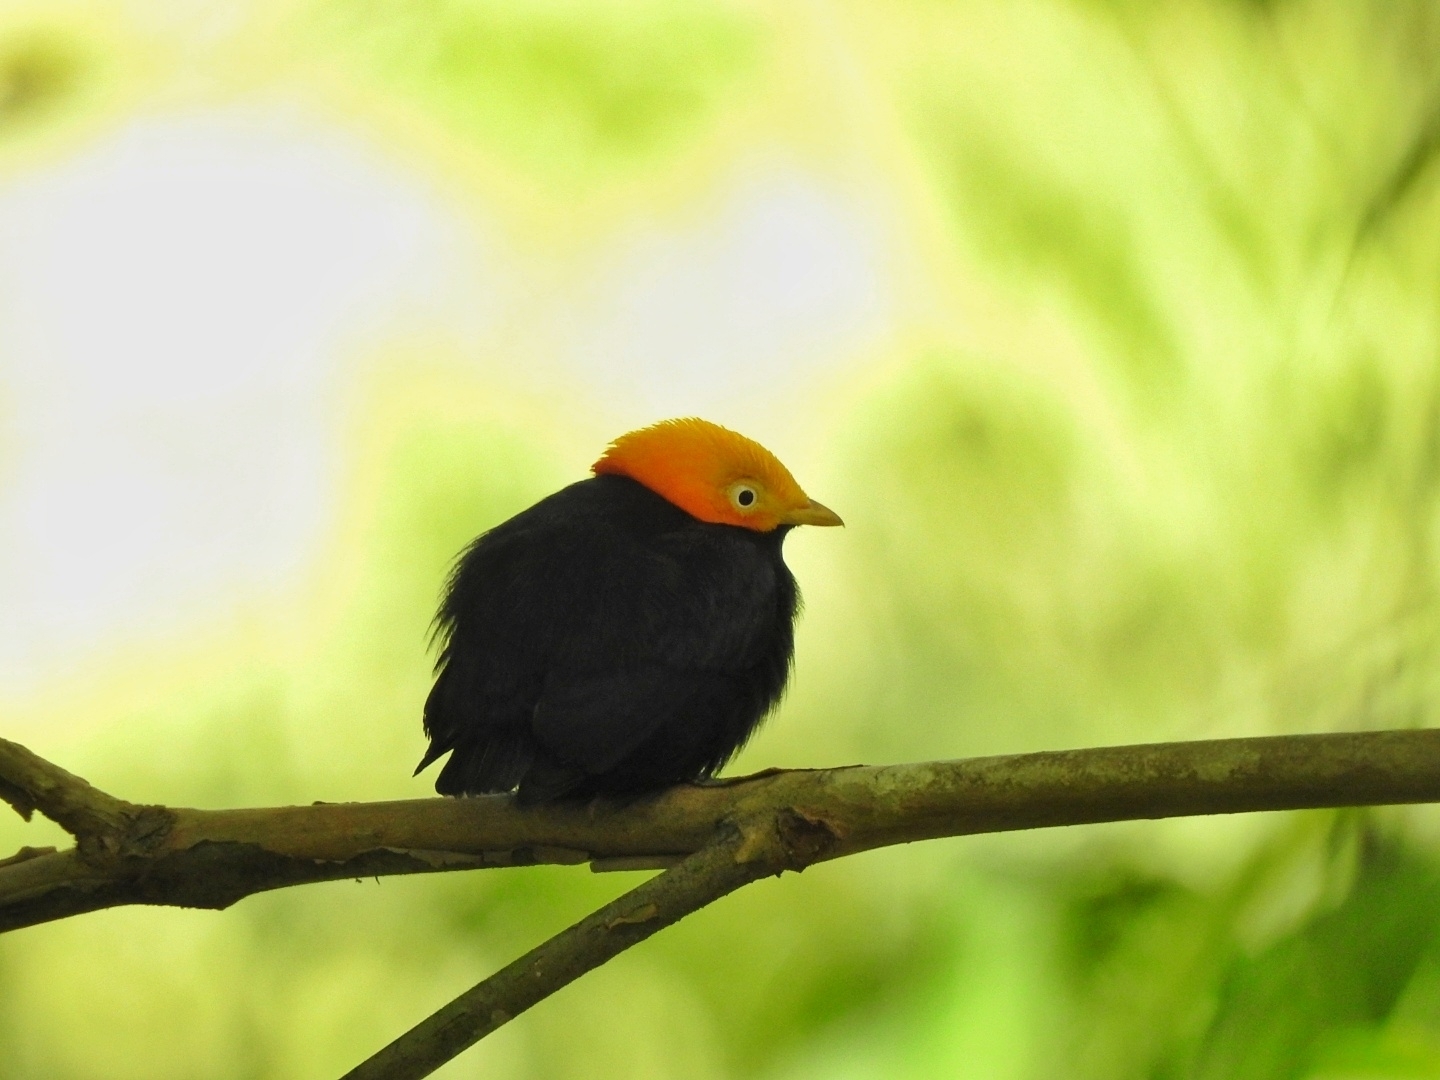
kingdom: Animalia
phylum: Chordata
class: Aves
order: Passeriformes
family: Pipridae
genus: Pipra
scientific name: Pipra erythrocephala
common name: Golden-headed manakin
